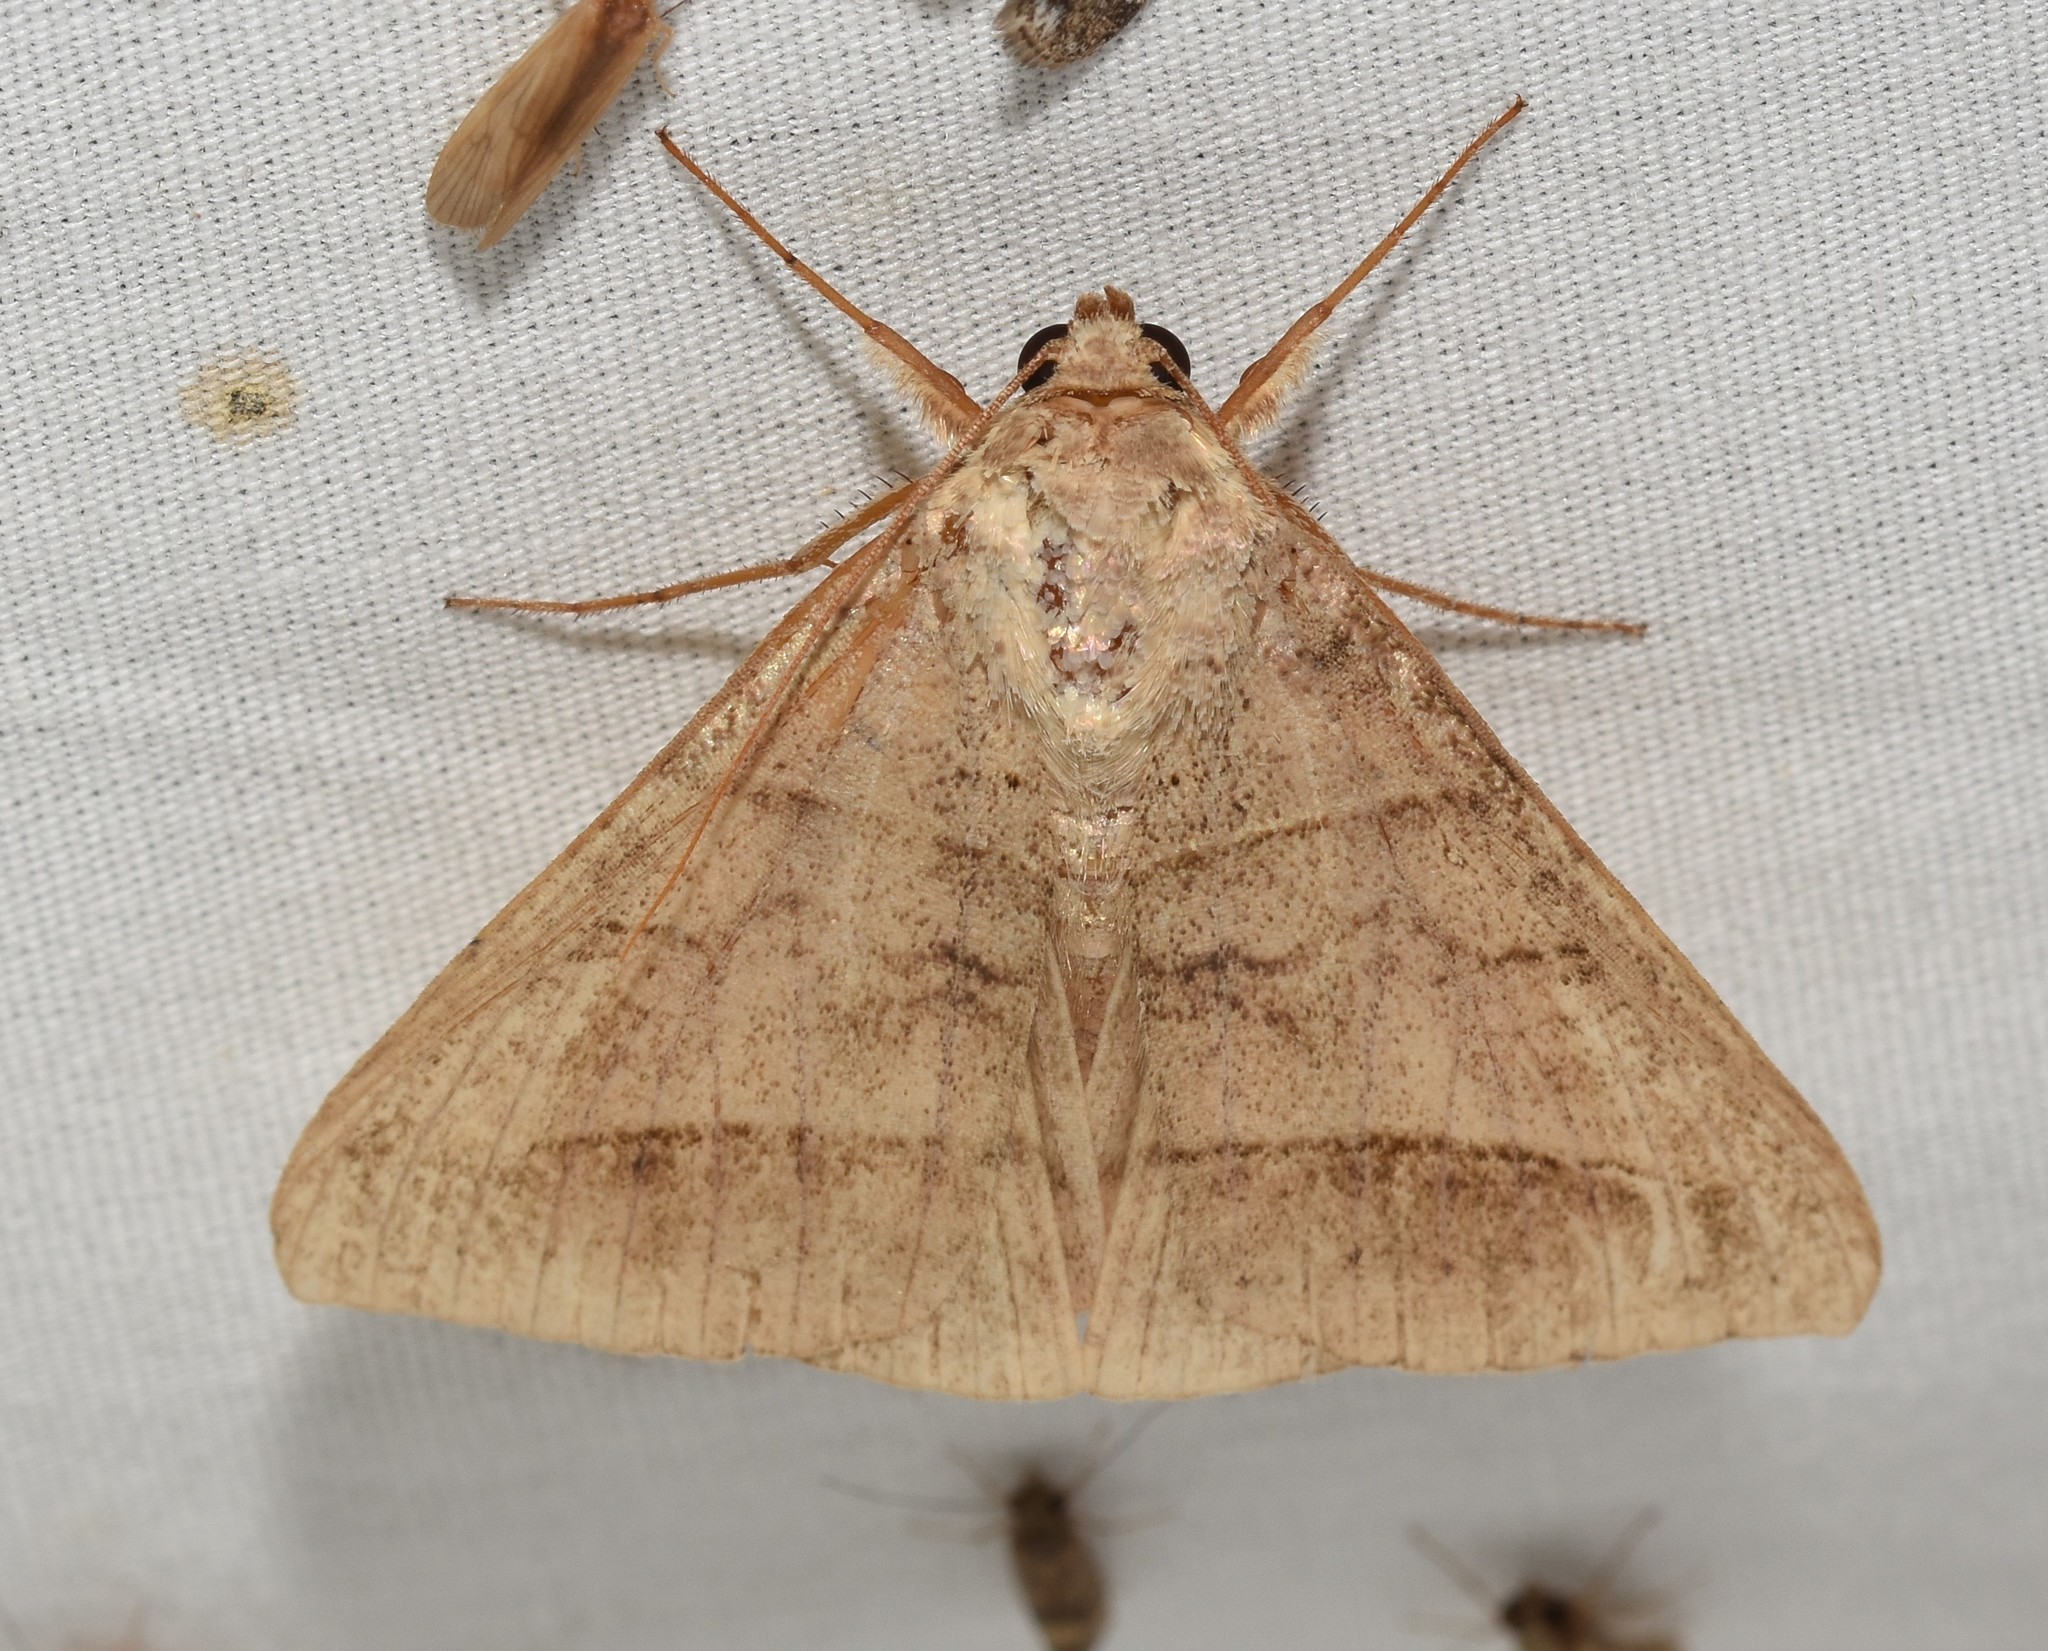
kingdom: Animalia
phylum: Arthropoda
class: Insecta
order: Lepidoptera
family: Erebidae
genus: Mocis
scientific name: Mocis texana
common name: Texas mocis moth
